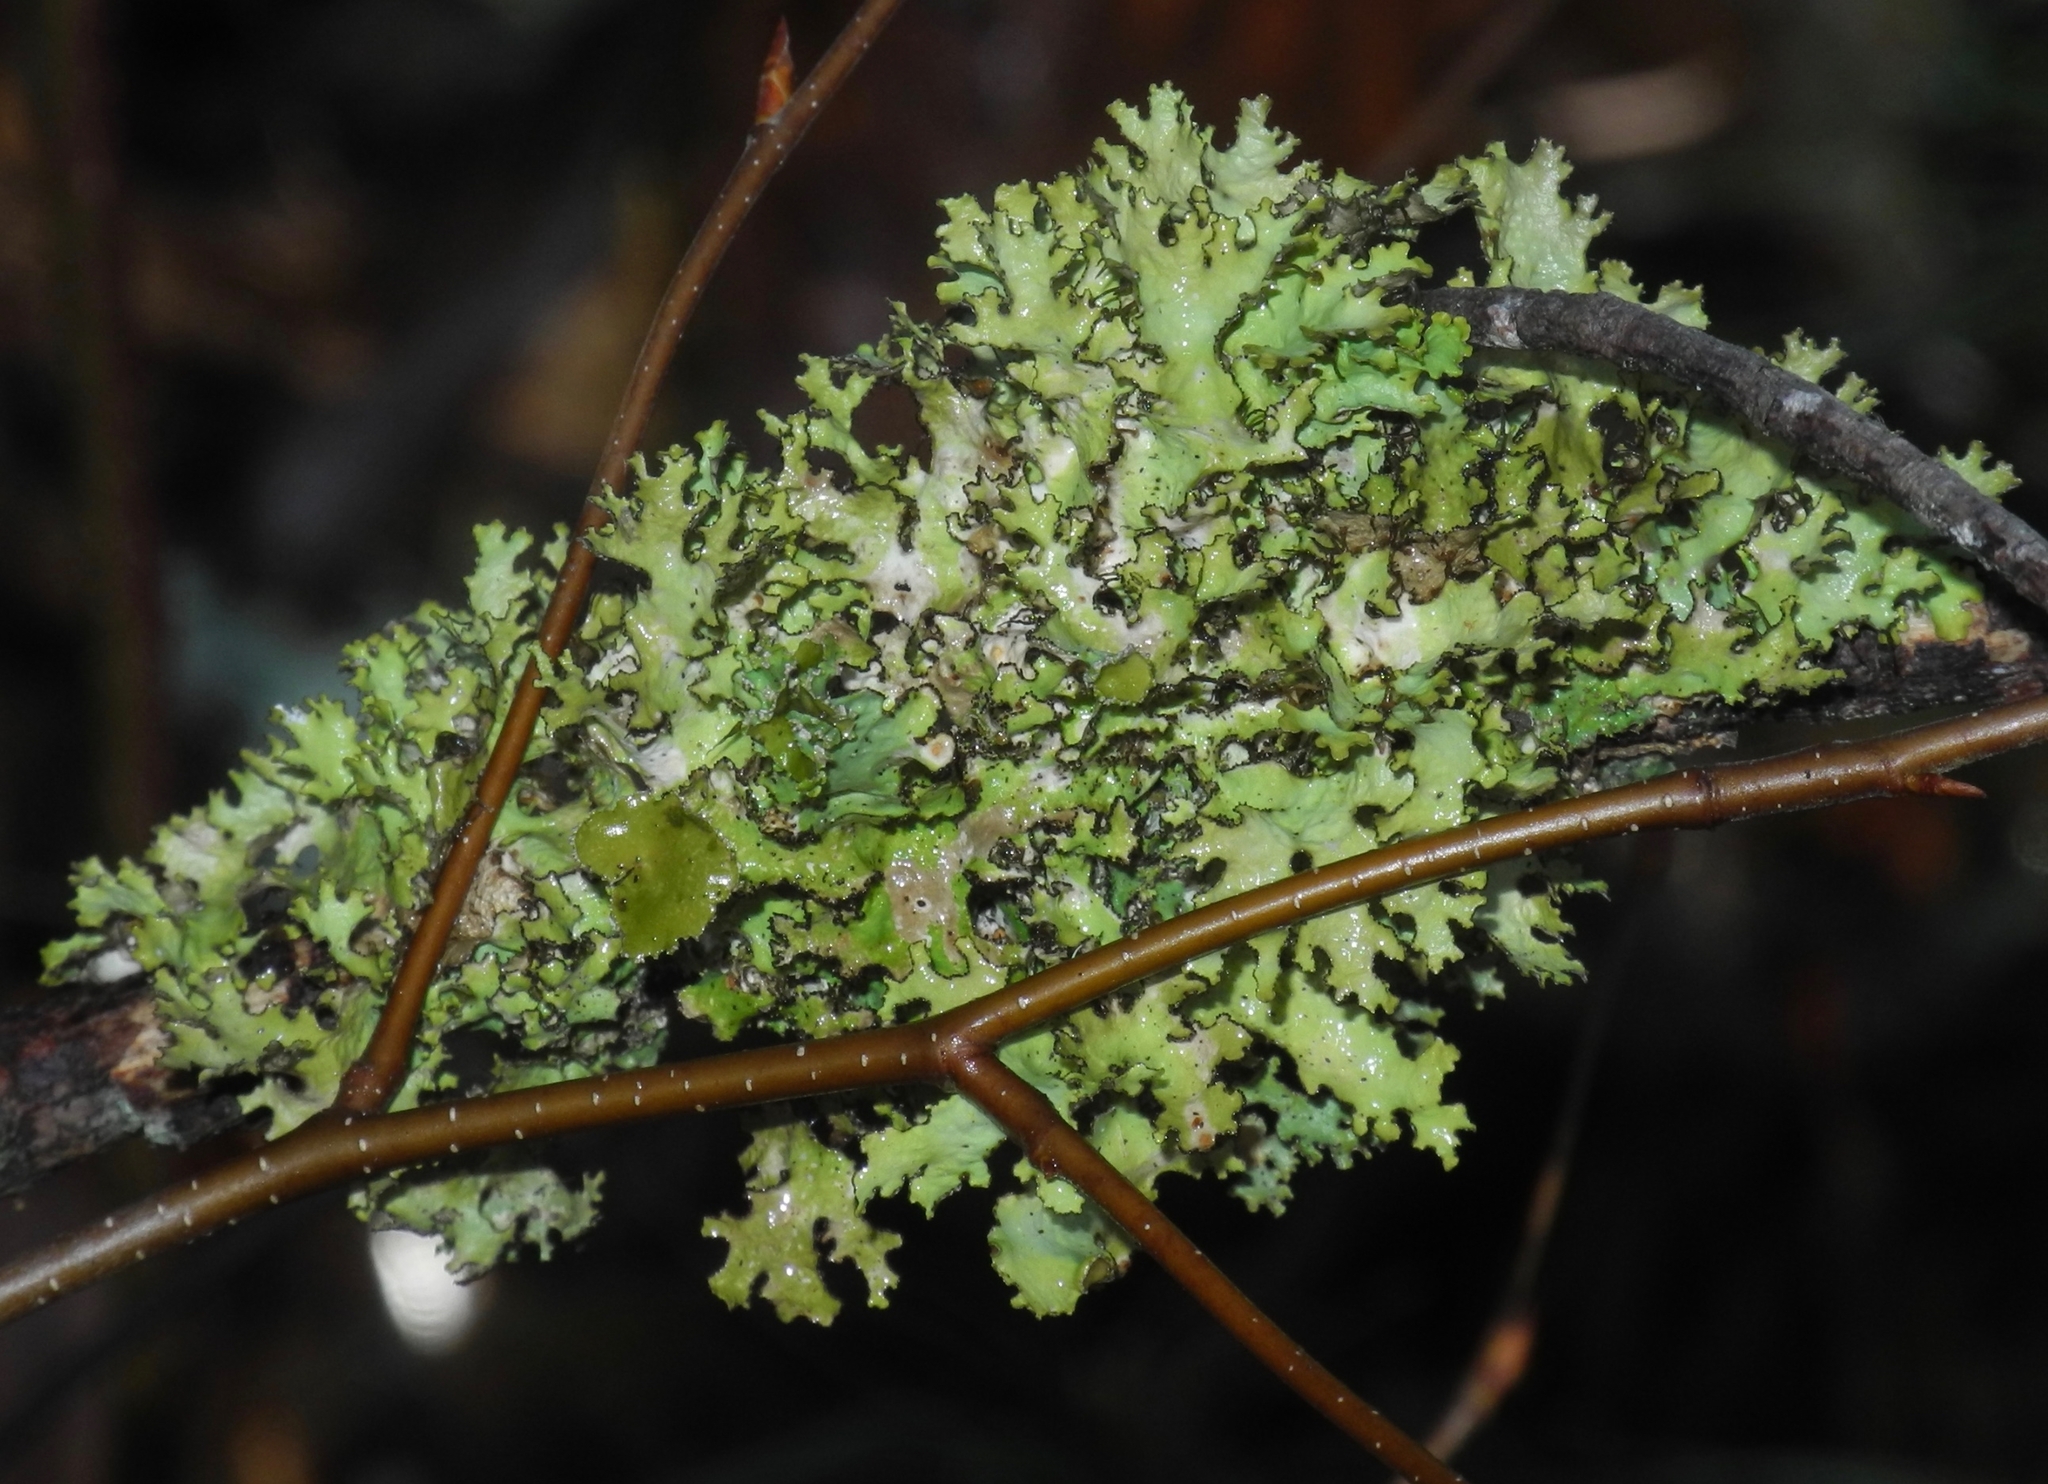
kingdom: Fungi
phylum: Ascomycota
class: Lecanoromycetes
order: Lecanorales
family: Parmeliaceae
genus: Nephromopsis
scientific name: Nephromopsis orbata
